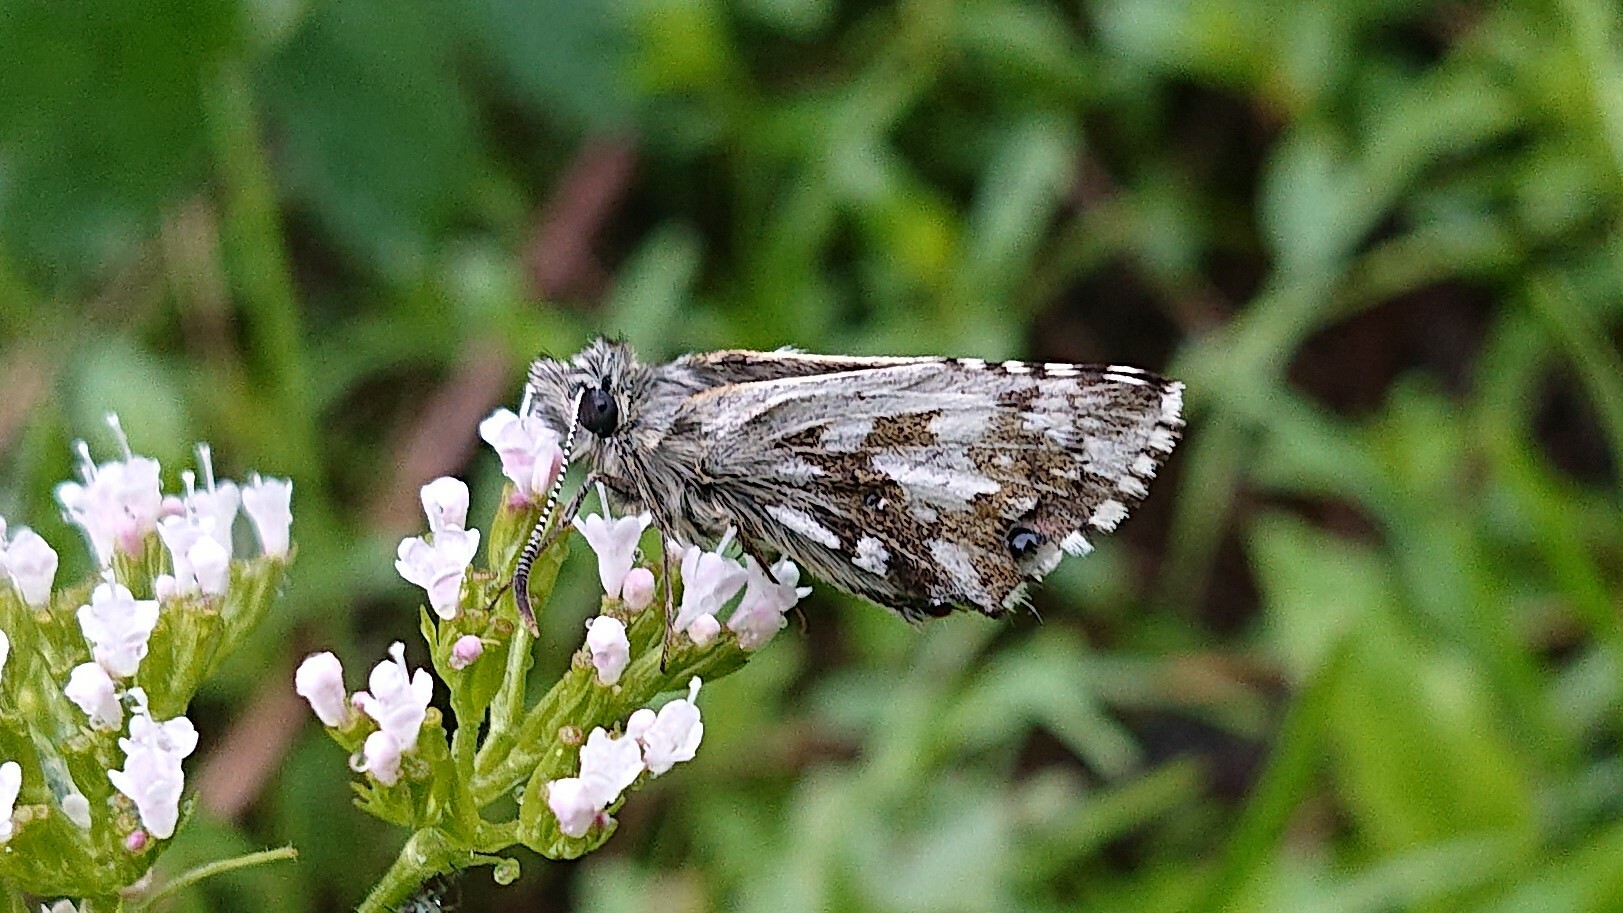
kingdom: Animalia
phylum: Arthropoda
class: Insecta
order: Lepidoptera
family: Hesperiidae
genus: Pyrgus
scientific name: Pyrgus andromedae
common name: Alpine grizzled skipper
